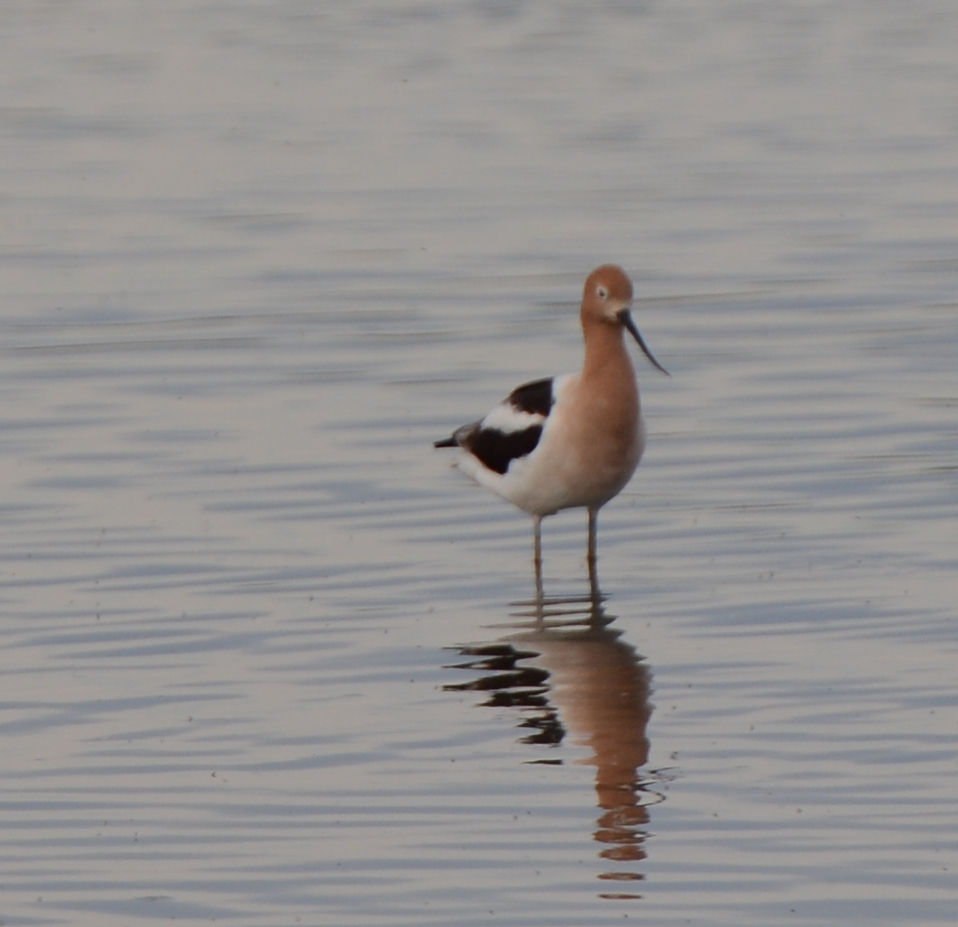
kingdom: Animalia
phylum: Chordata
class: Aves
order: Charadriiformes
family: Recurvirostridae
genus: Recurvirostra
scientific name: Recurvirostra americana
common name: American avocet
